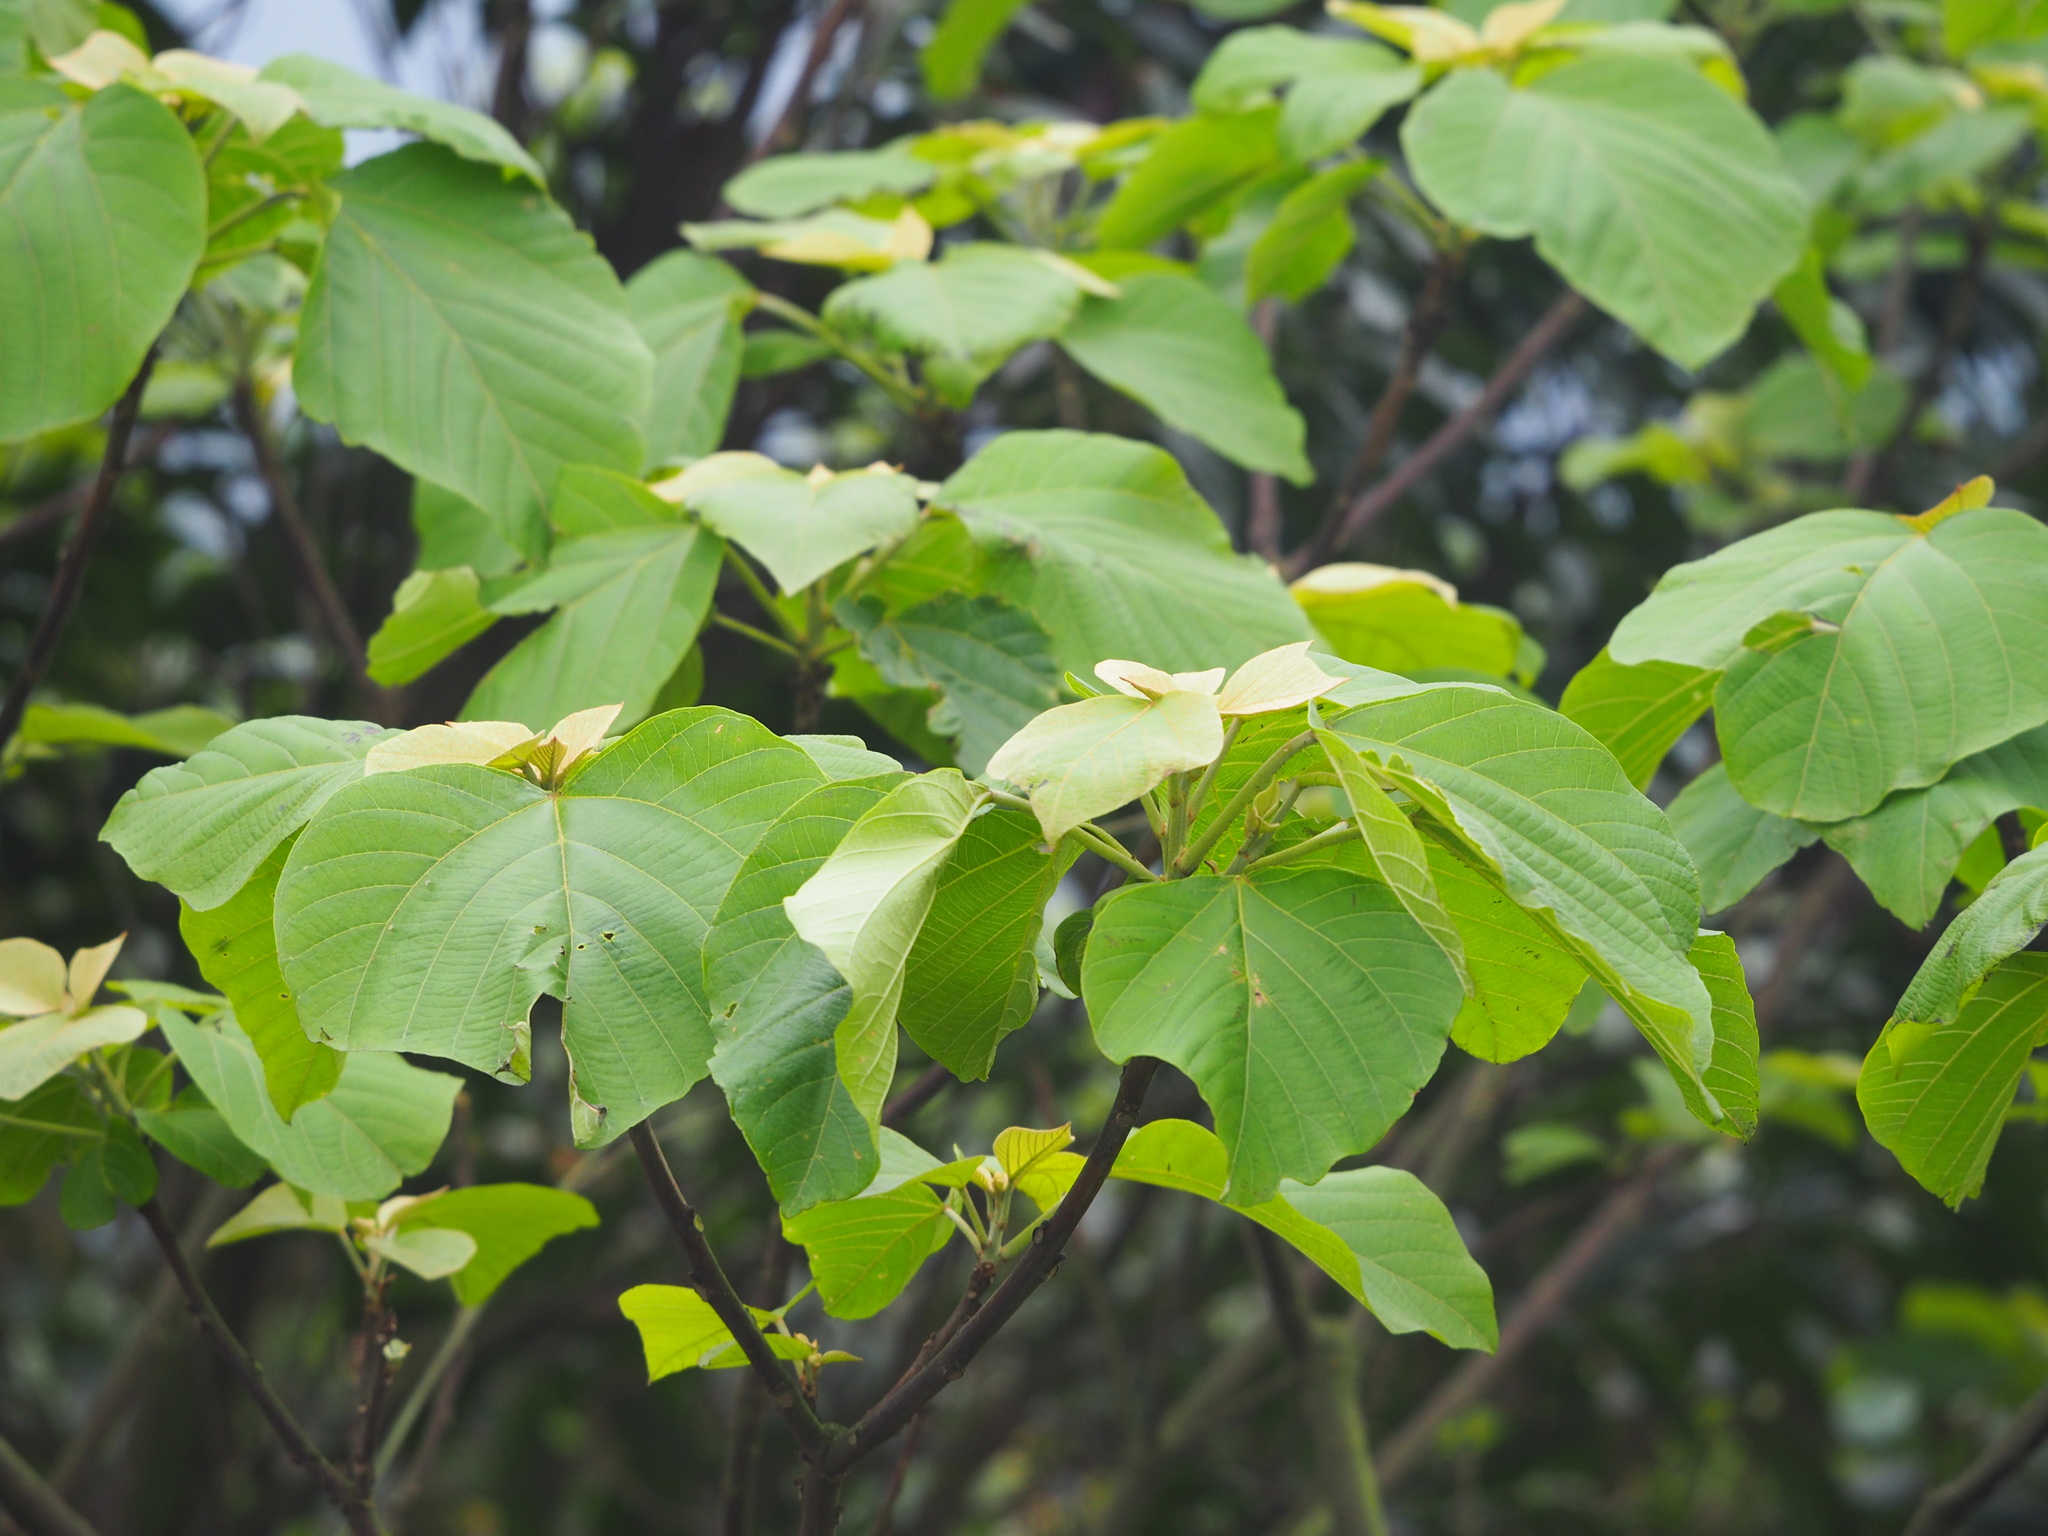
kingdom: Plantae
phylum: Tracheophyta
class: Magnoliopsida
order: Malpighiales
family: Euphorbiaceae
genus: Mallotus
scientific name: Mallotus japonicus
